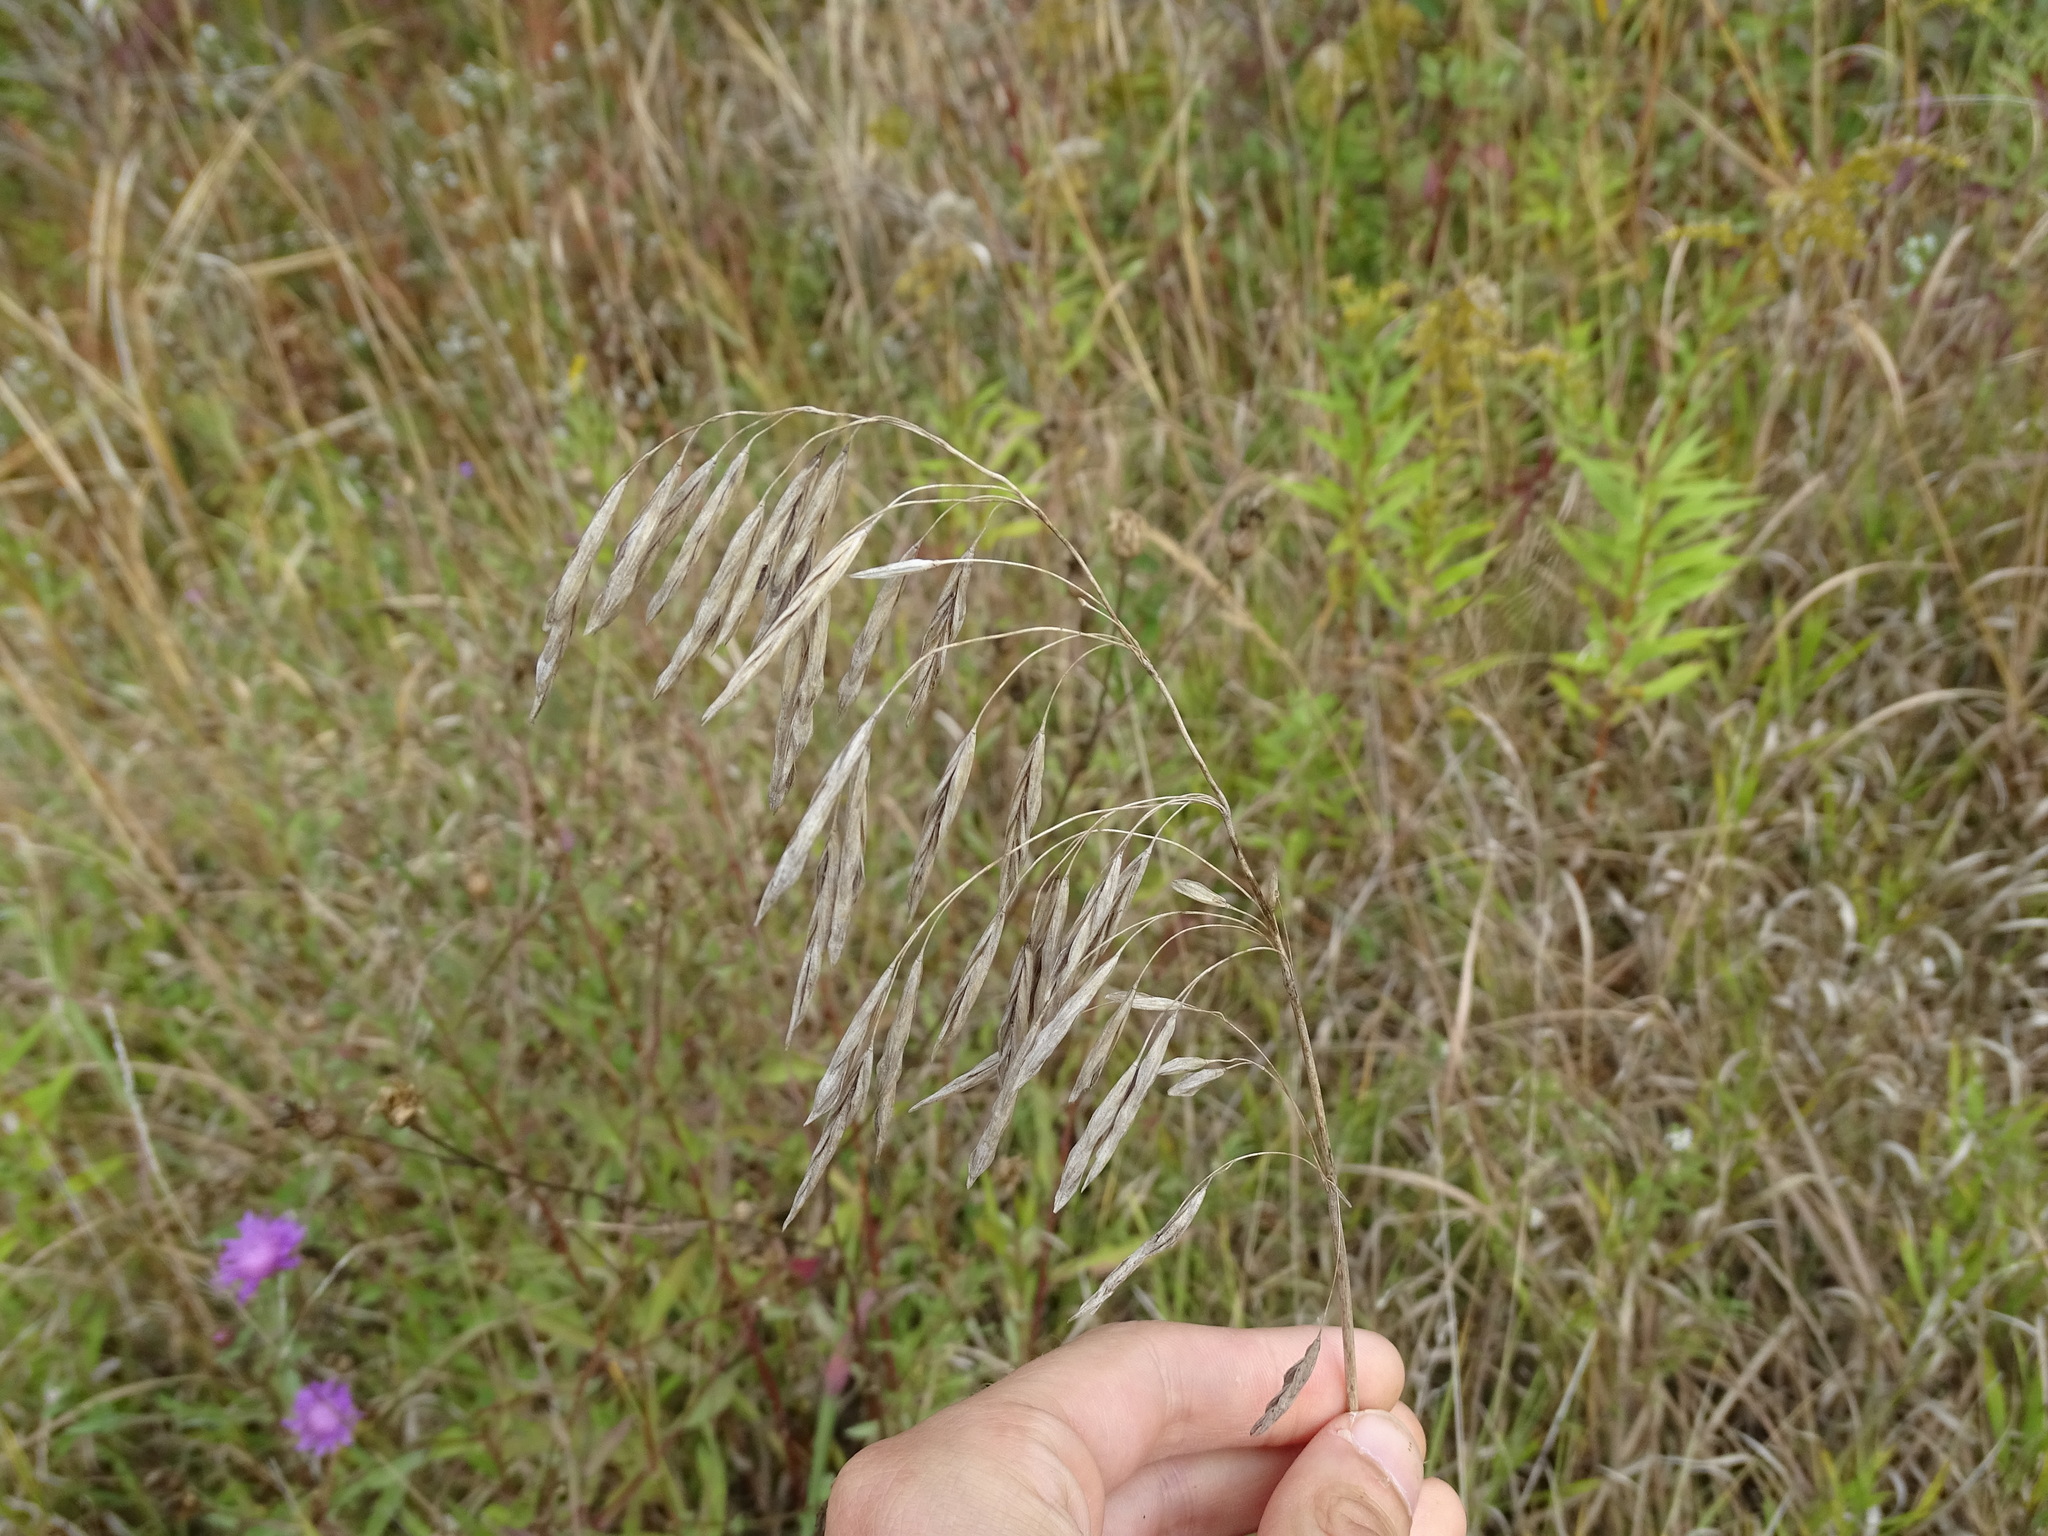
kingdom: Plantae
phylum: Tracheophyta
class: Liliopsida
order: Poales
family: Poaceae
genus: Bromus
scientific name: Bromus inermis
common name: Smooth brome
